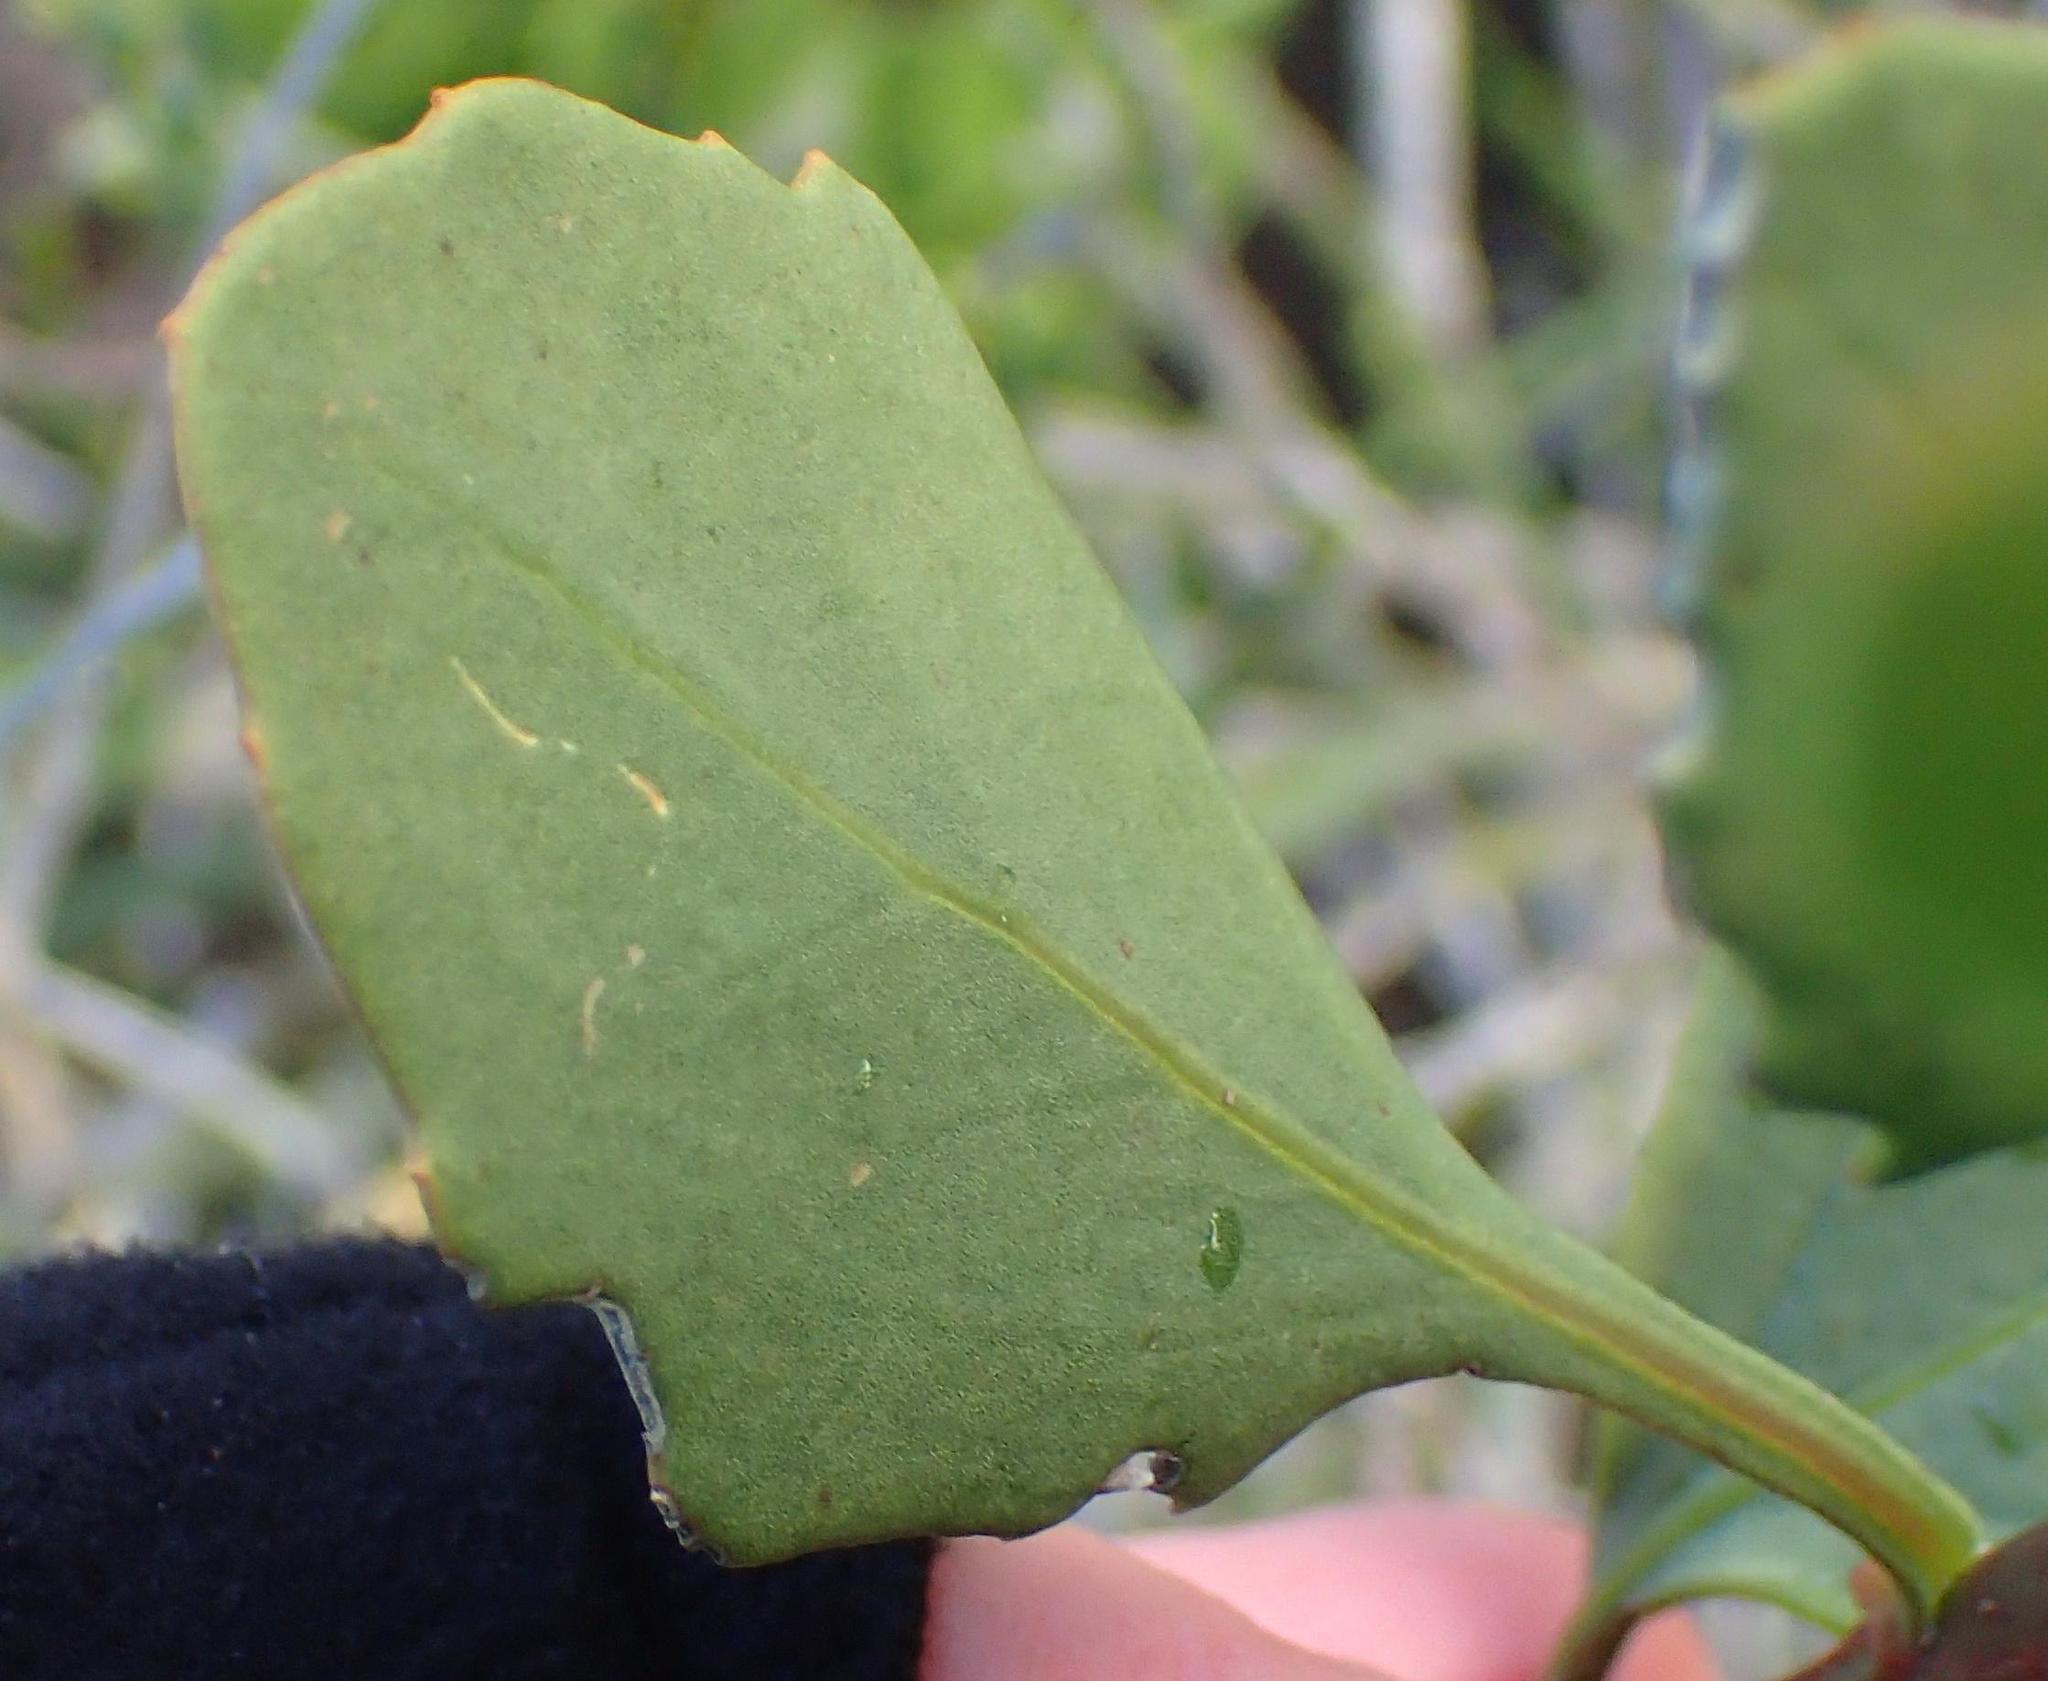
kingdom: Plantae
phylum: Tracheophyta
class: Magnoliopsida
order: Asterales
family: Asteraceae
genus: Osteospermum
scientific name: Osteospermum moniliferum
